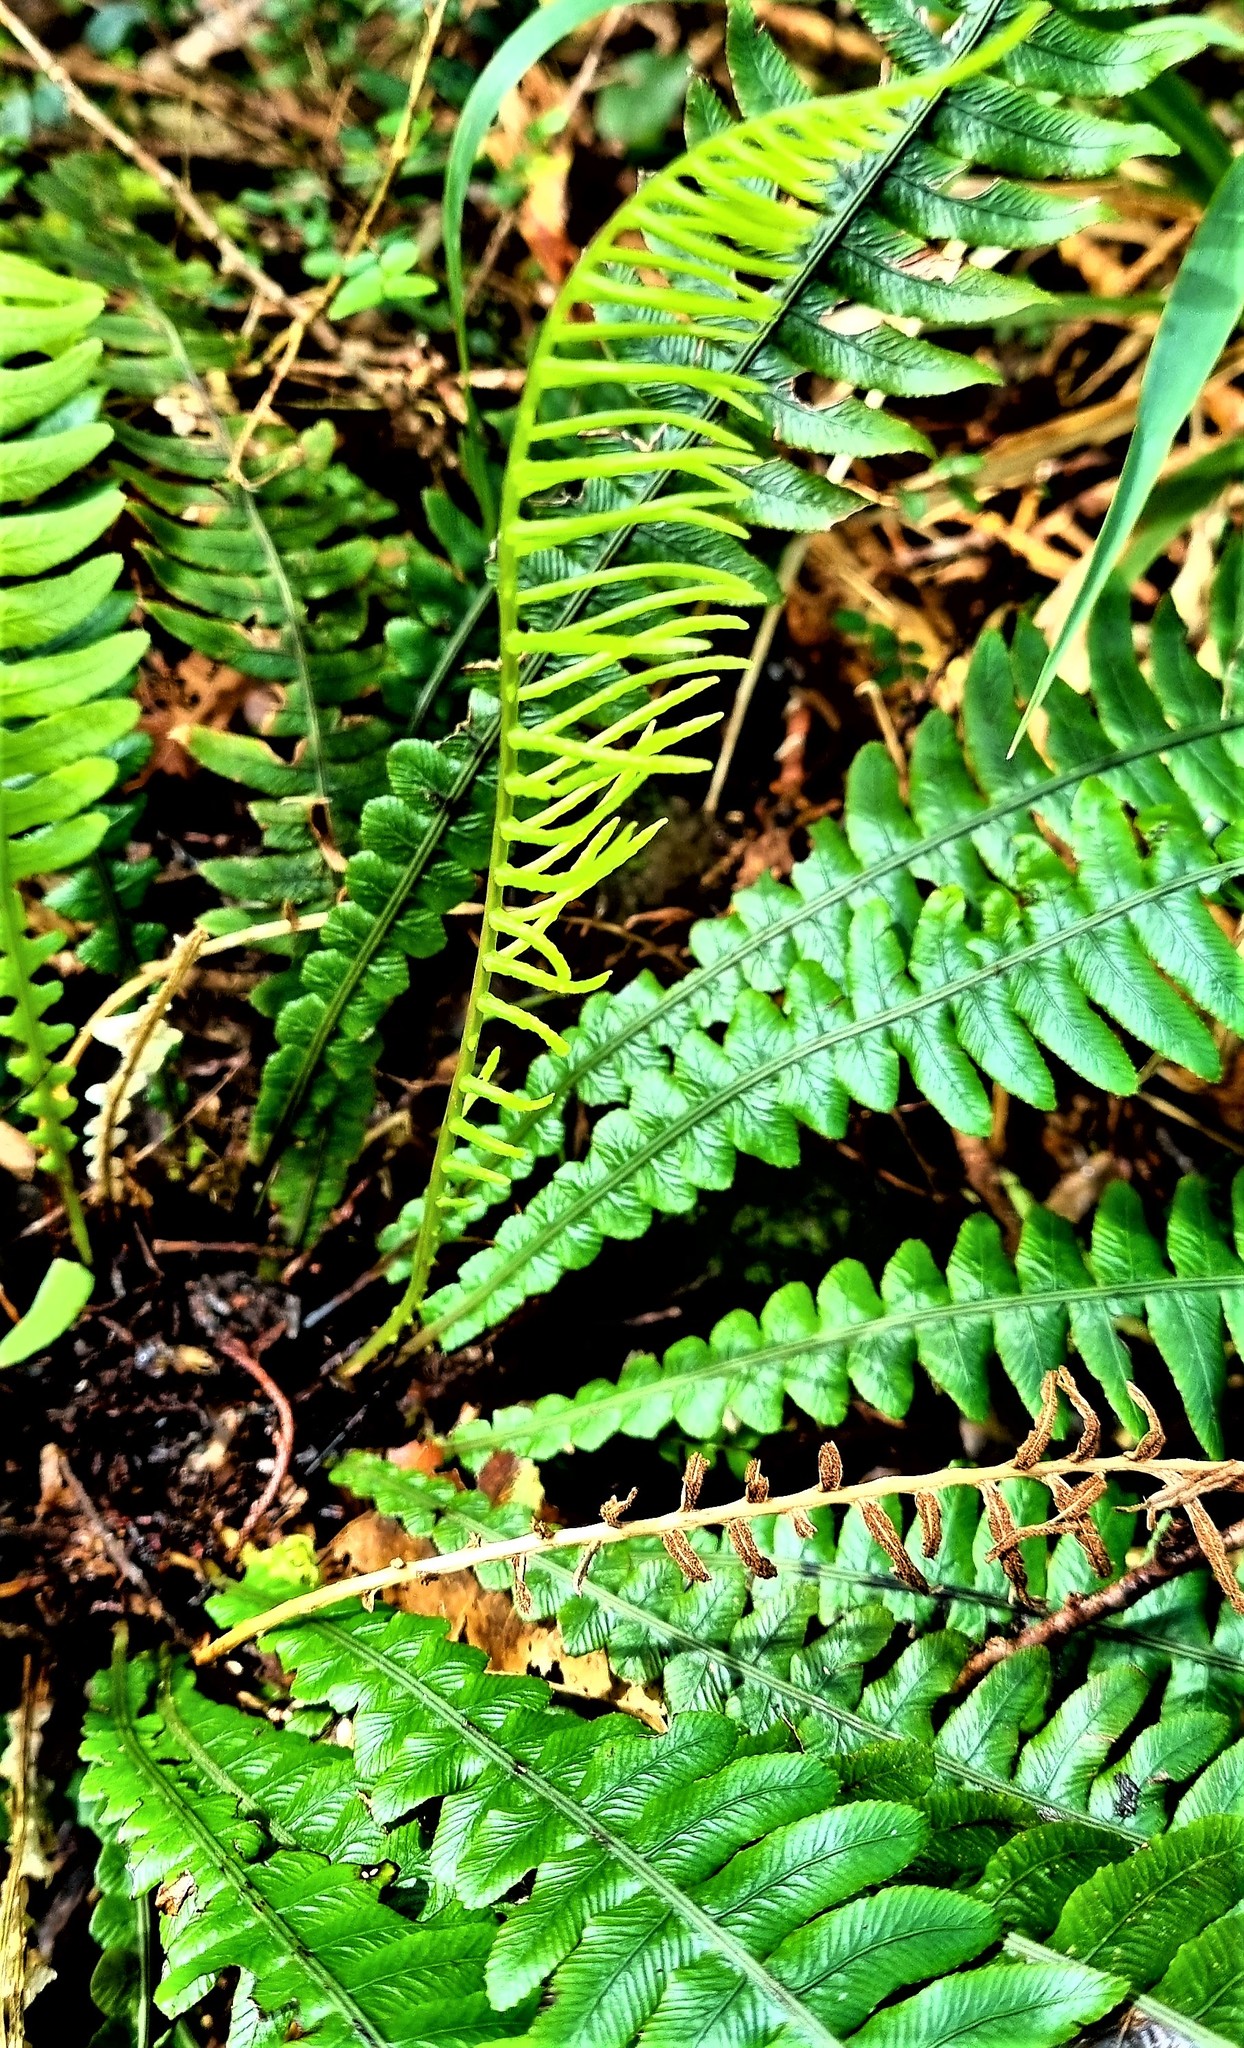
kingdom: Plantae
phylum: Tracheophyta
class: Polypodiopsida
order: Polypodiales
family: Blechnaceae
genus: Austroblechnum
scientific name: Austroblechnum lanceolatum
